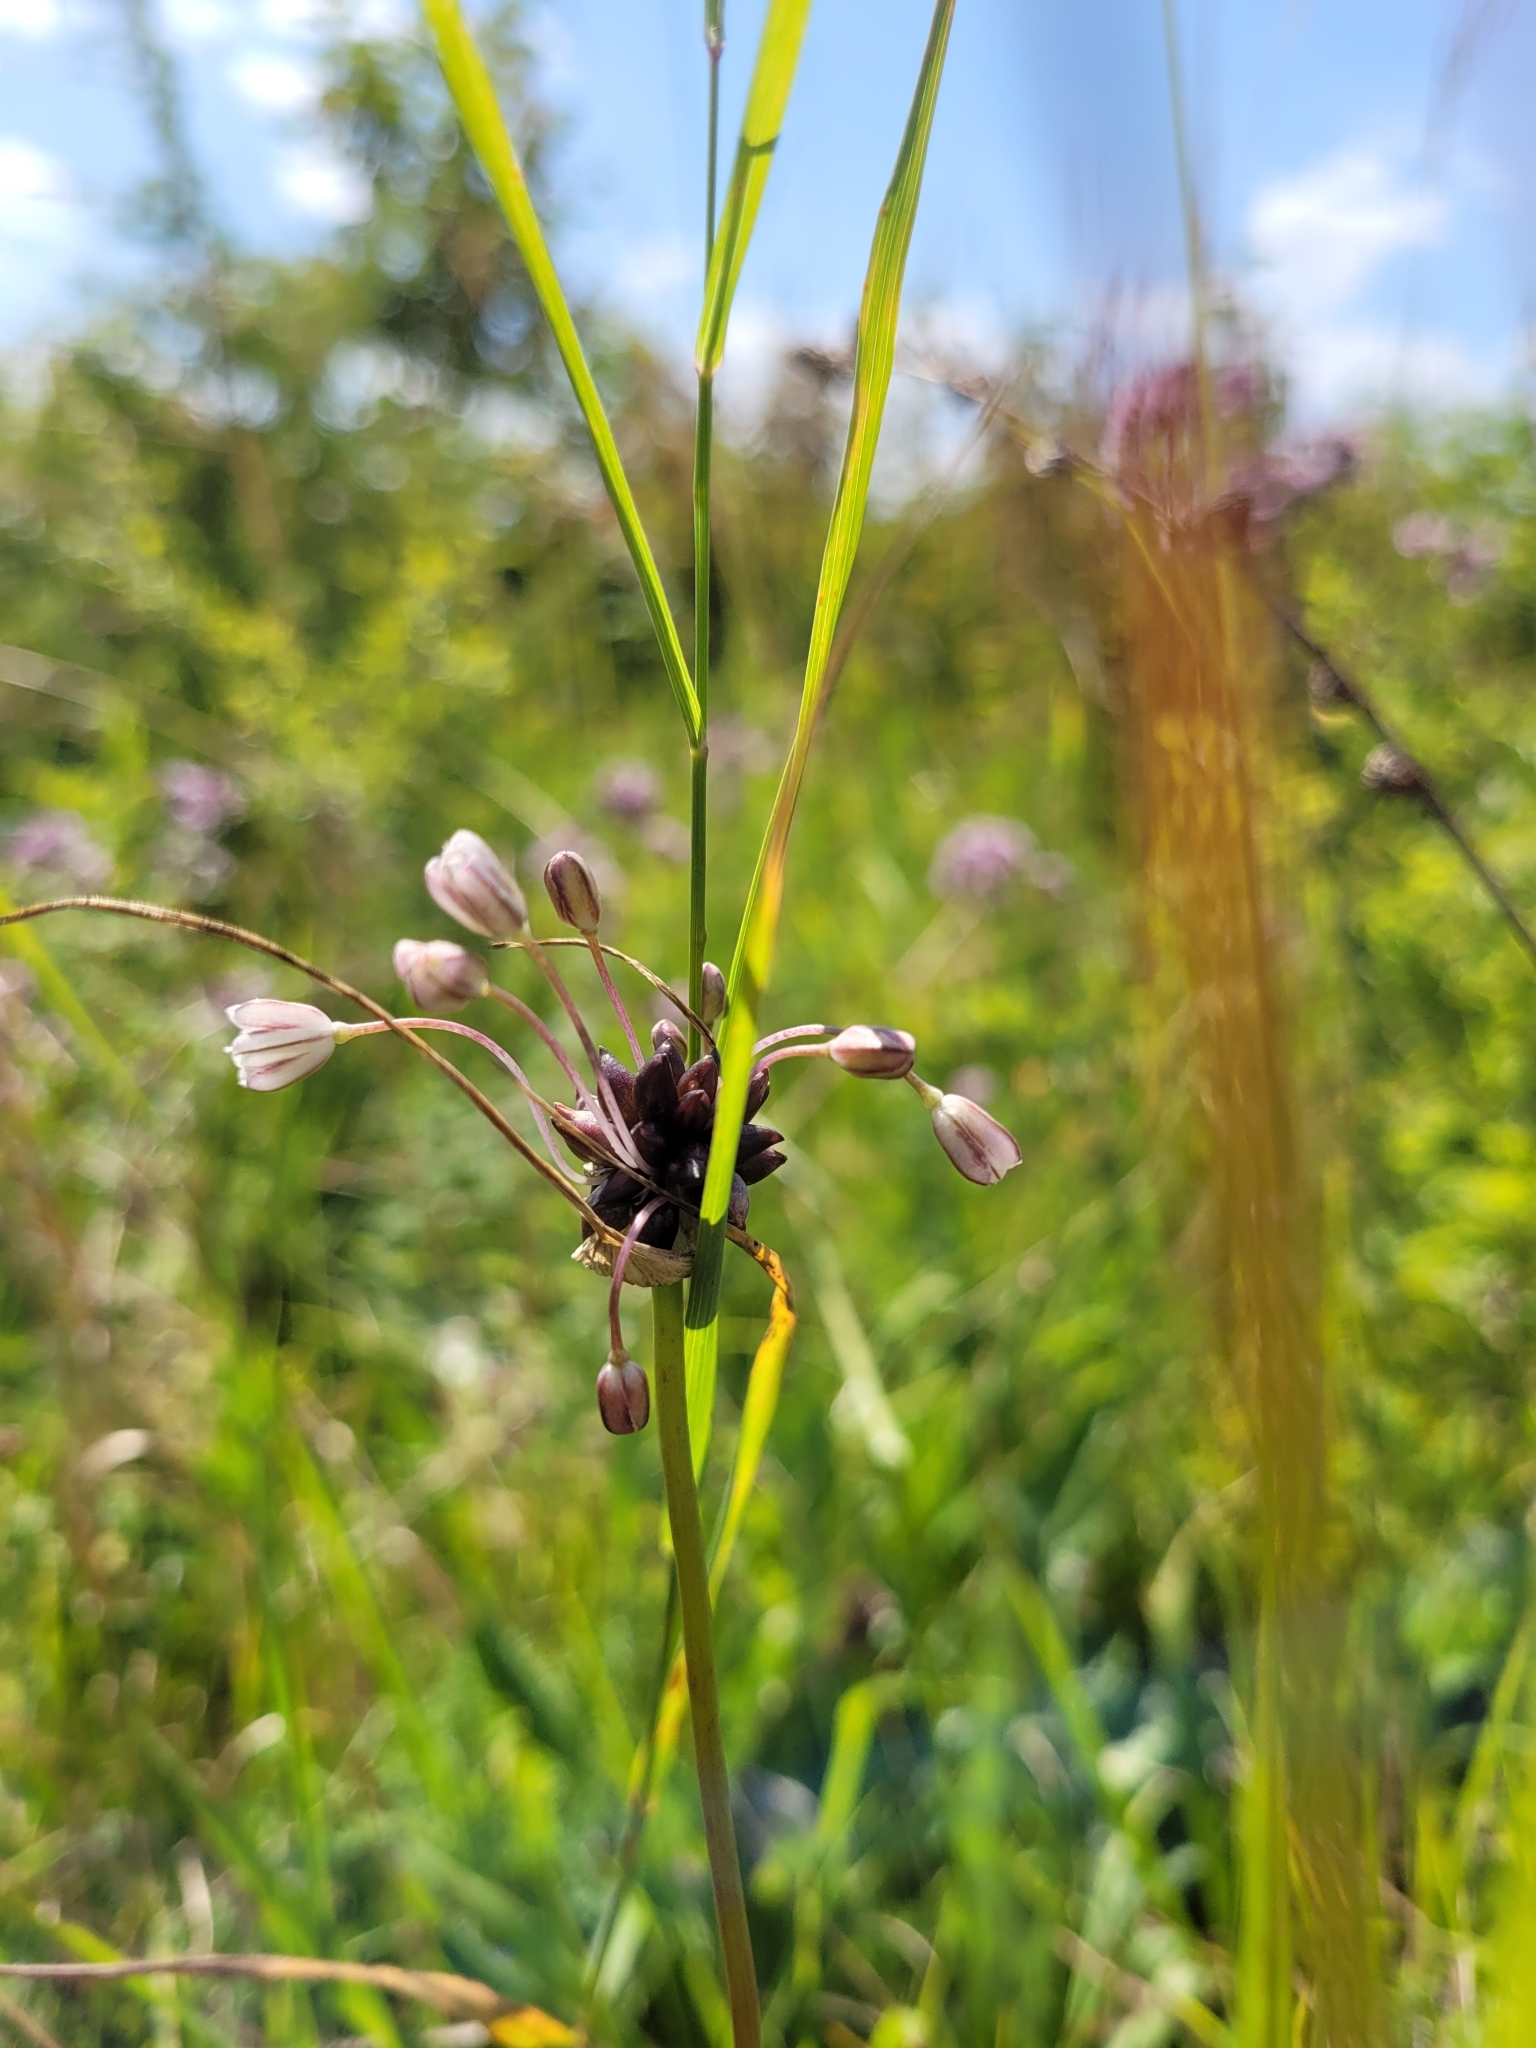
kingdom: Plantae
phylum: Tracheophyta
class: Liliopsida
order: Asparagales
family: Amaryllidaceae
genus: Allium
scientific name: Allium oleraceum
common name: Field garlic
